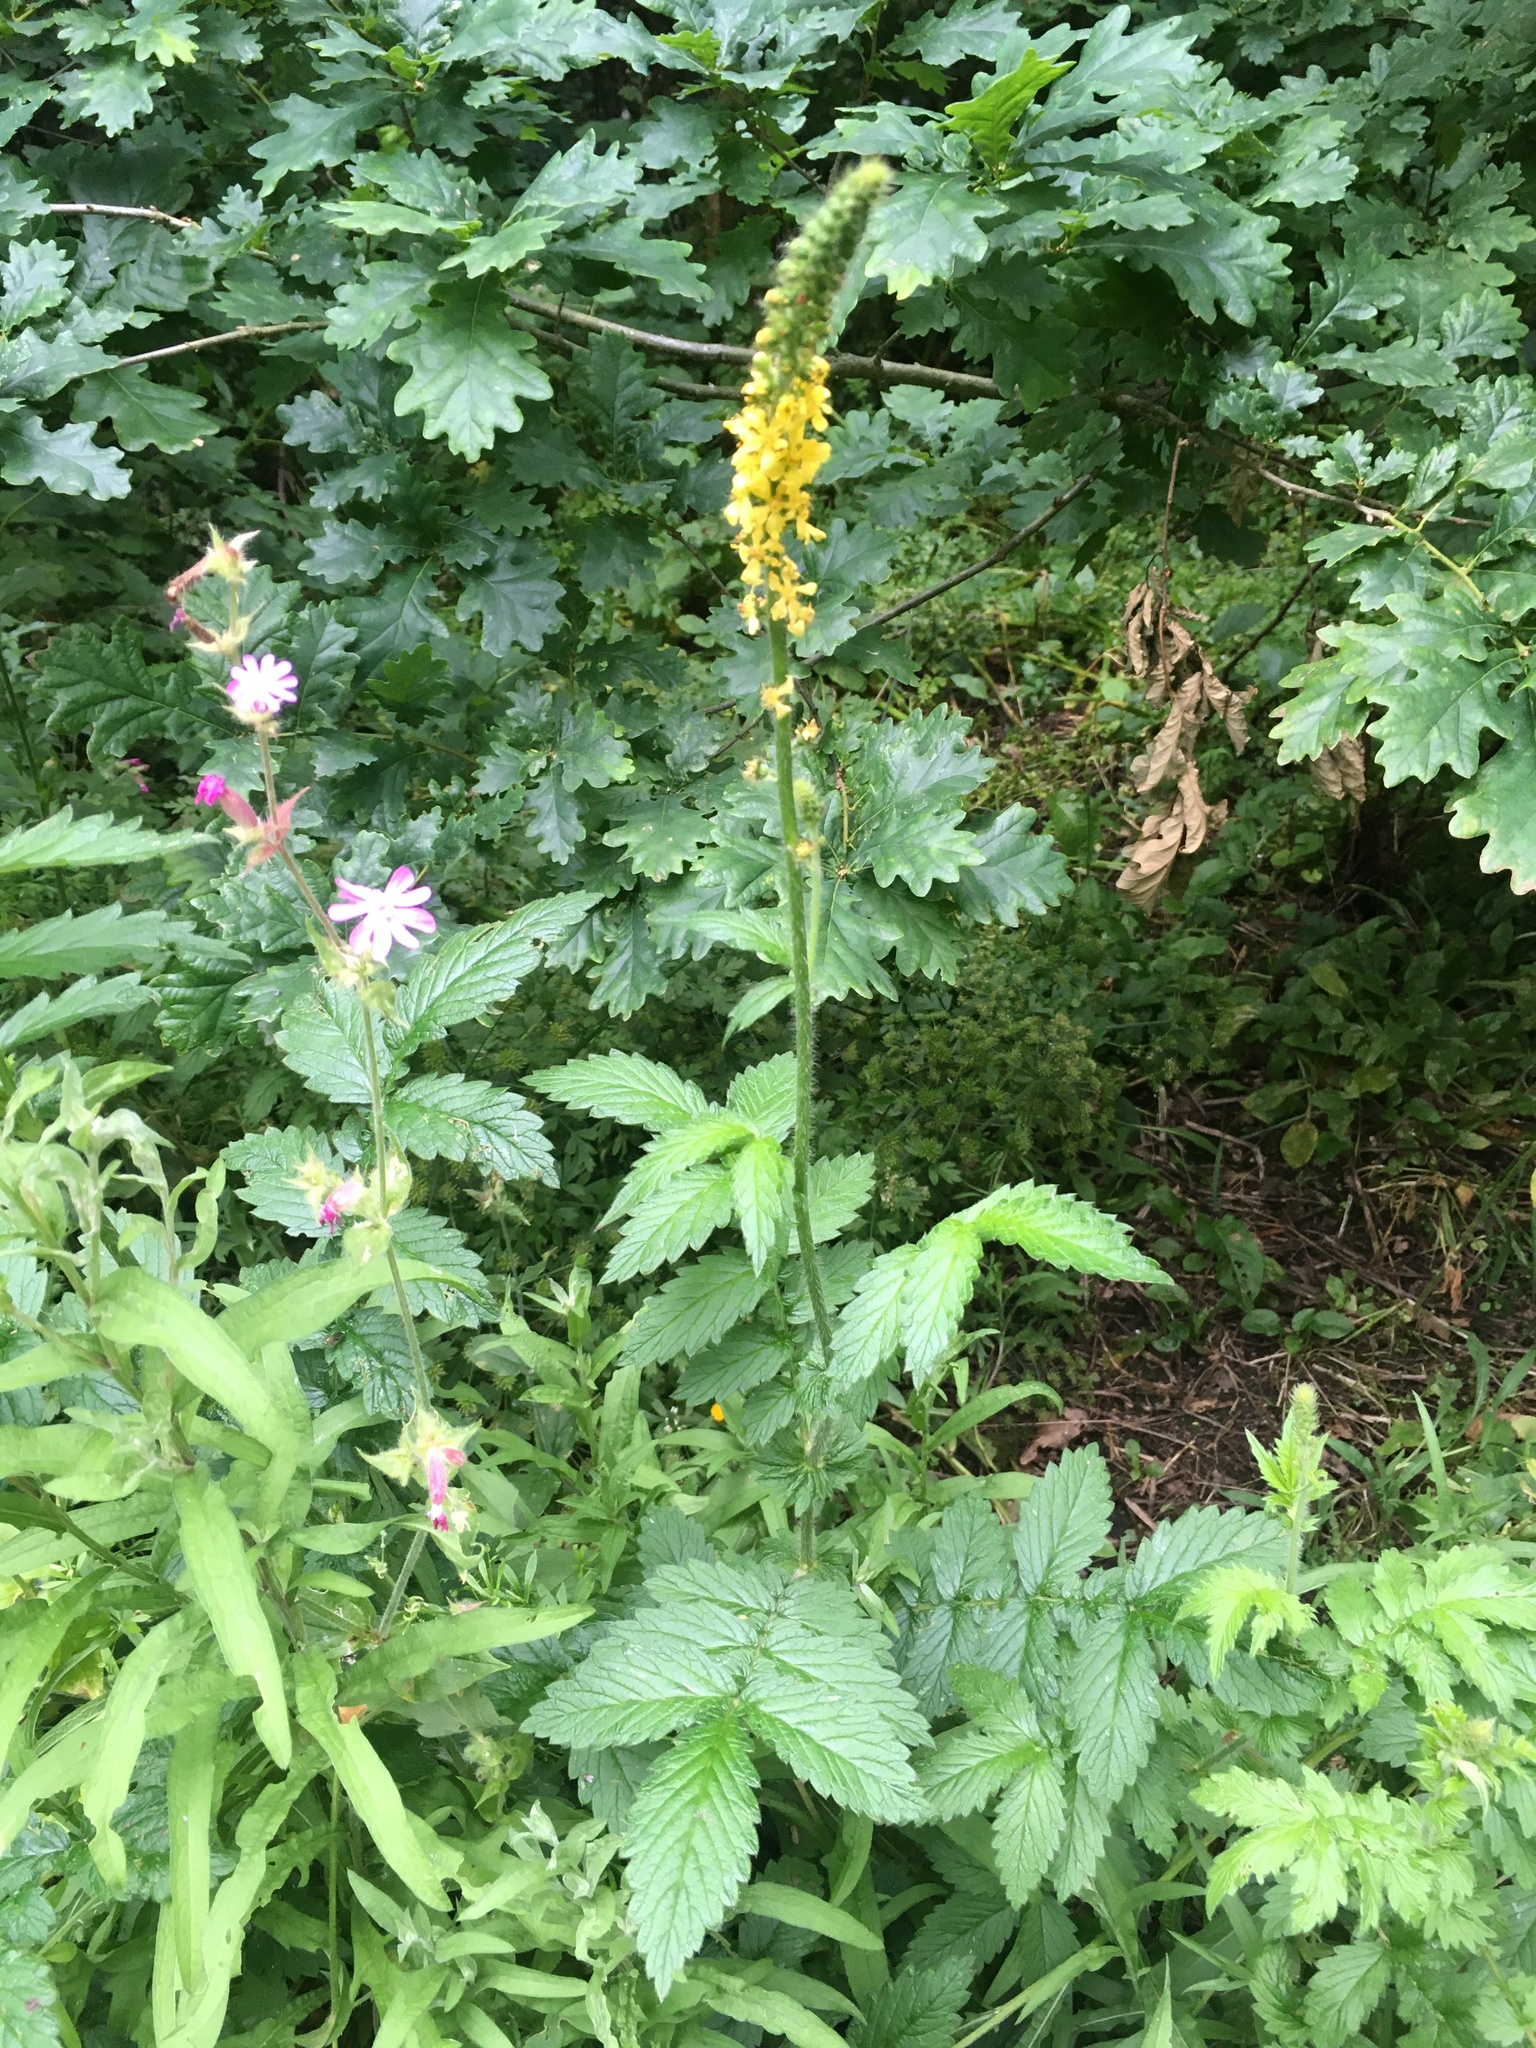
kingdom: Plantae
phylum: Tracheophyta
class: Magnoliopsida
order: Rosales
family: Rosaceae
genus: Agrimonia
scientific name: Agrimonia eupatoria
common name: Agrimony
